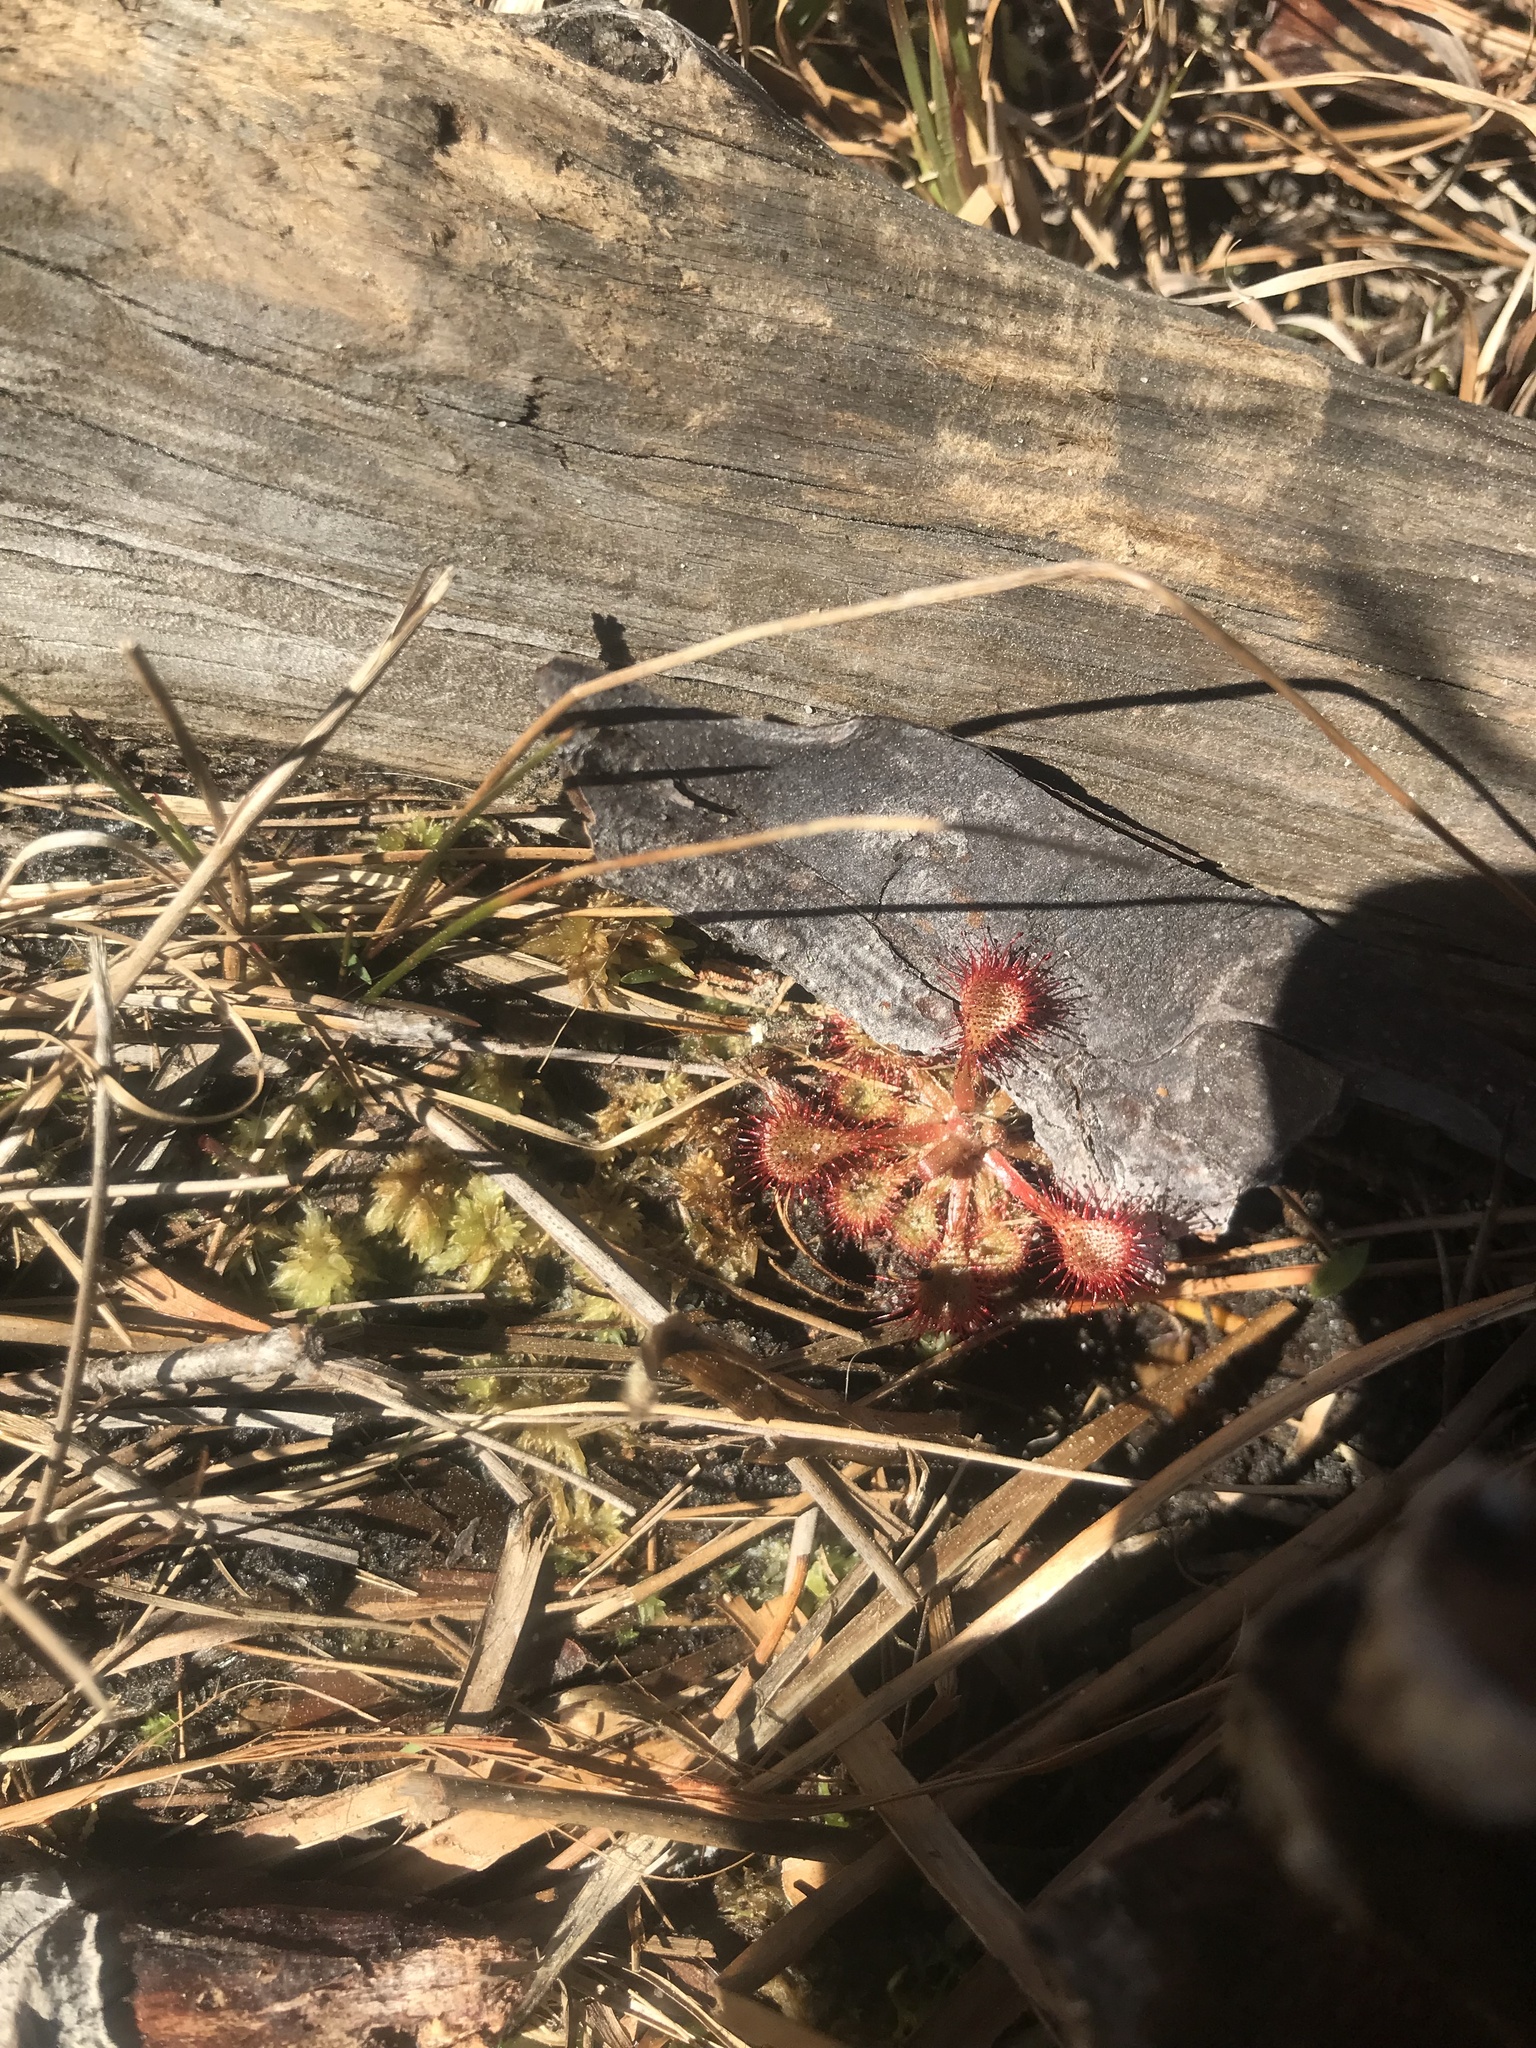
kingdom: Plantae
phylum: Tracheophyta
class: Magnoliopsida
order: Caryophyllales
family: Droseraceae
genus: Drosera
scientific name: Drosera capillaris
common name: Pink sundew
